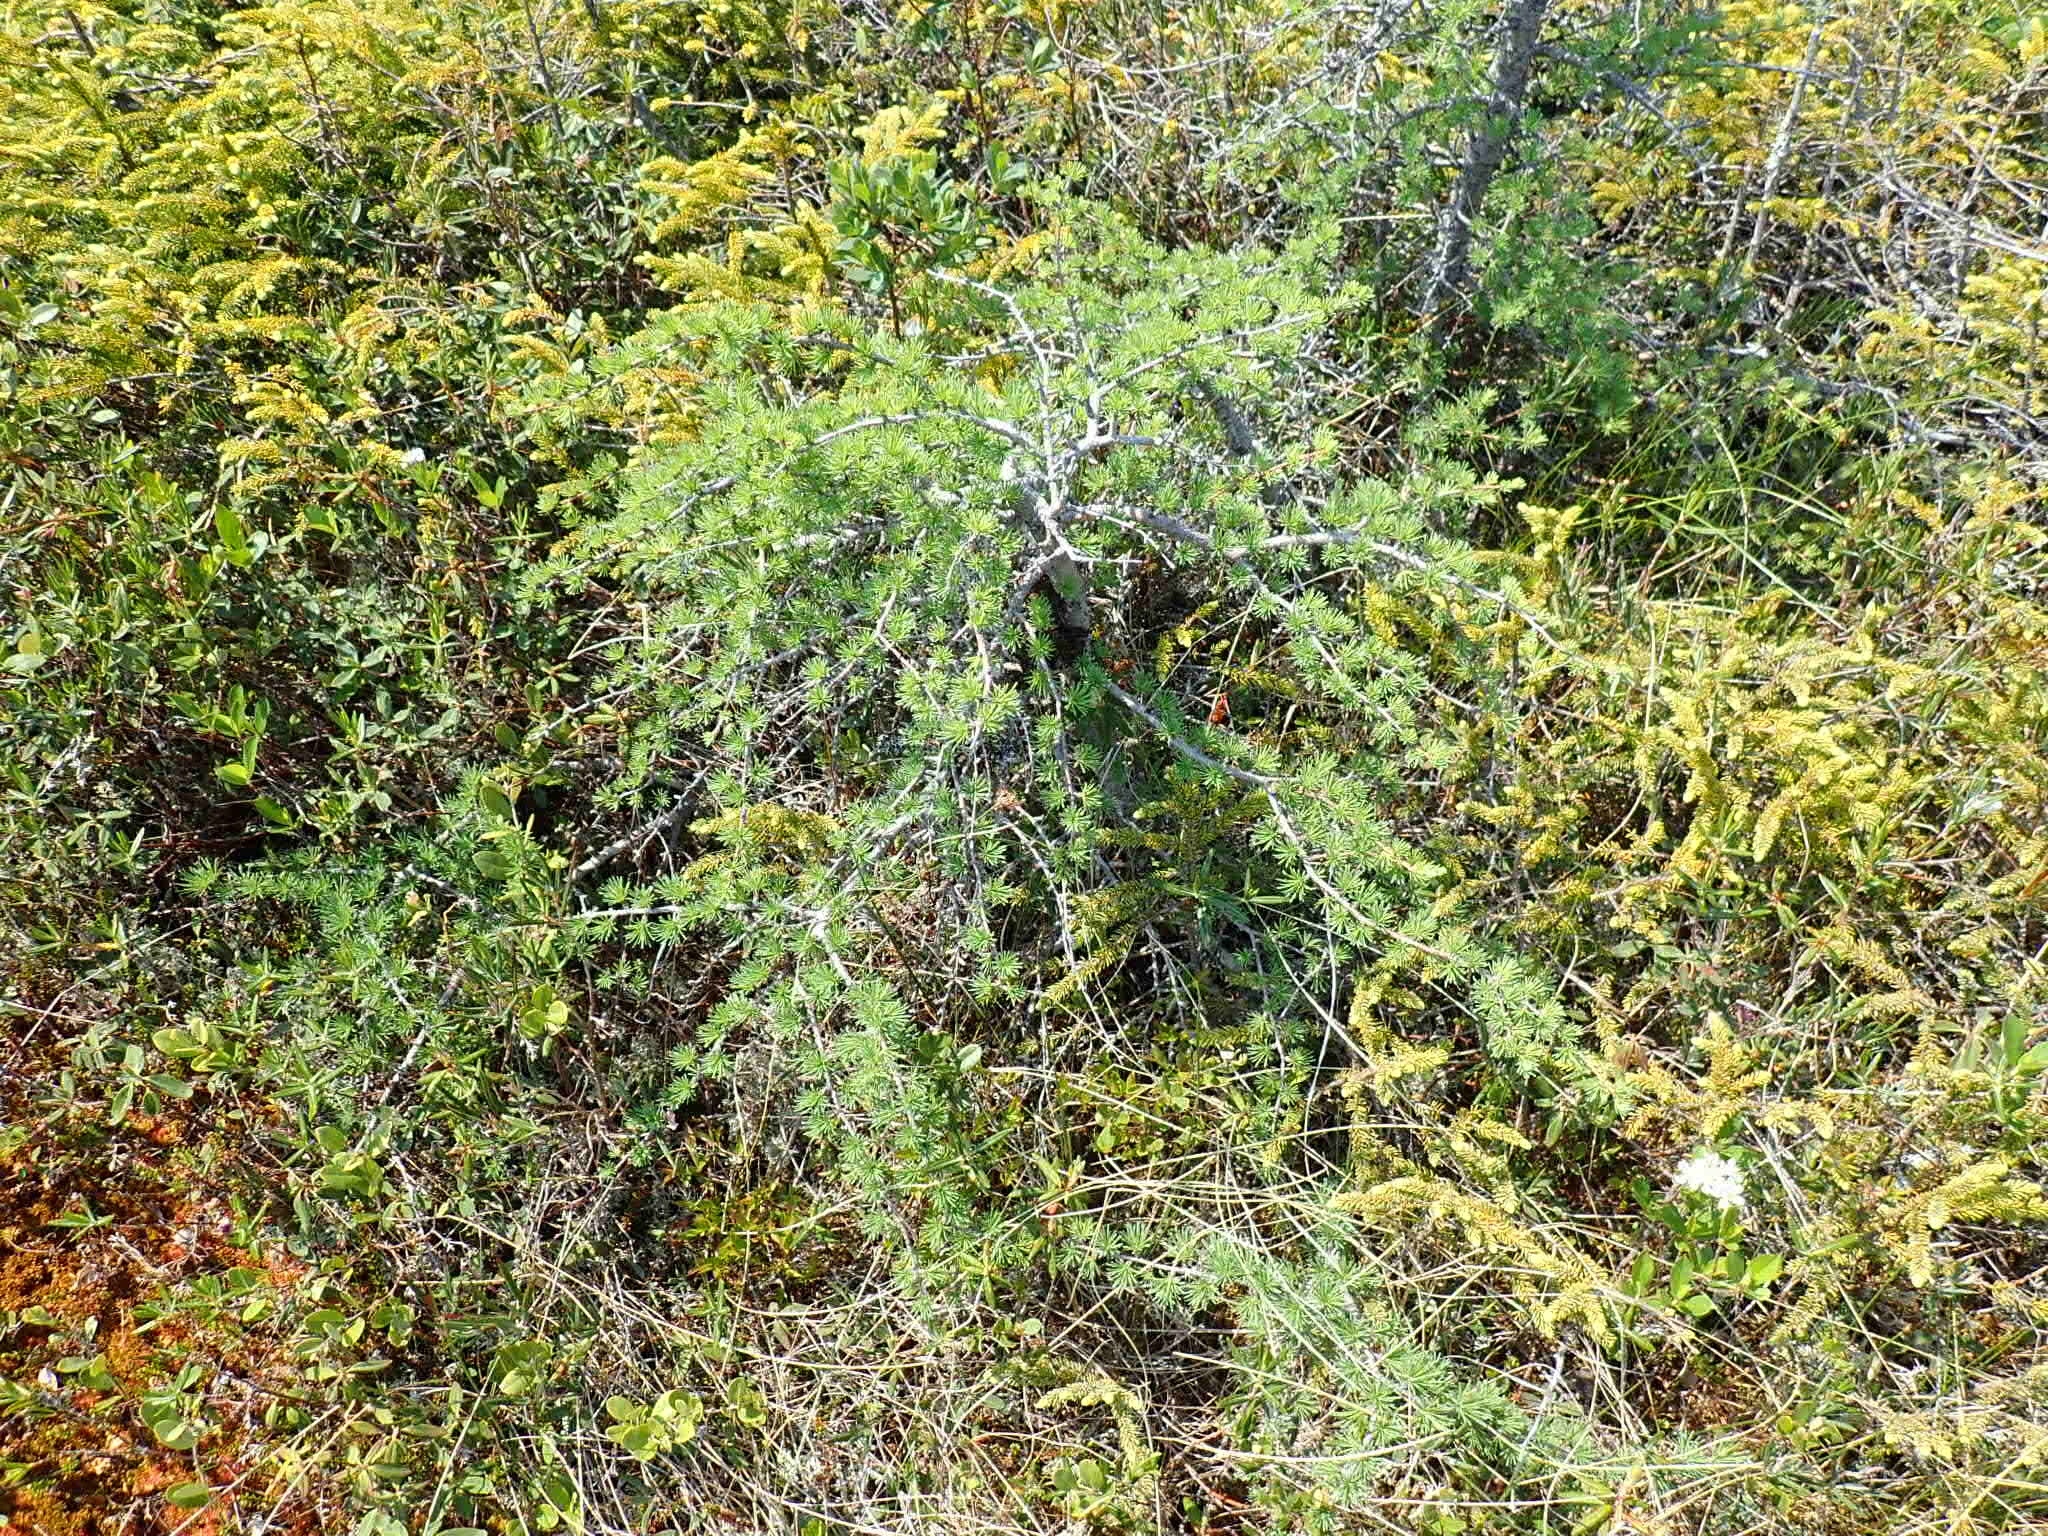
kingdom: Plantae
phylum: Tracheophyta
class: Pinopsida
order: Pinales
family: Pinaceae
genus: Larix
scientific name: Larix laricina
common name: American larch
